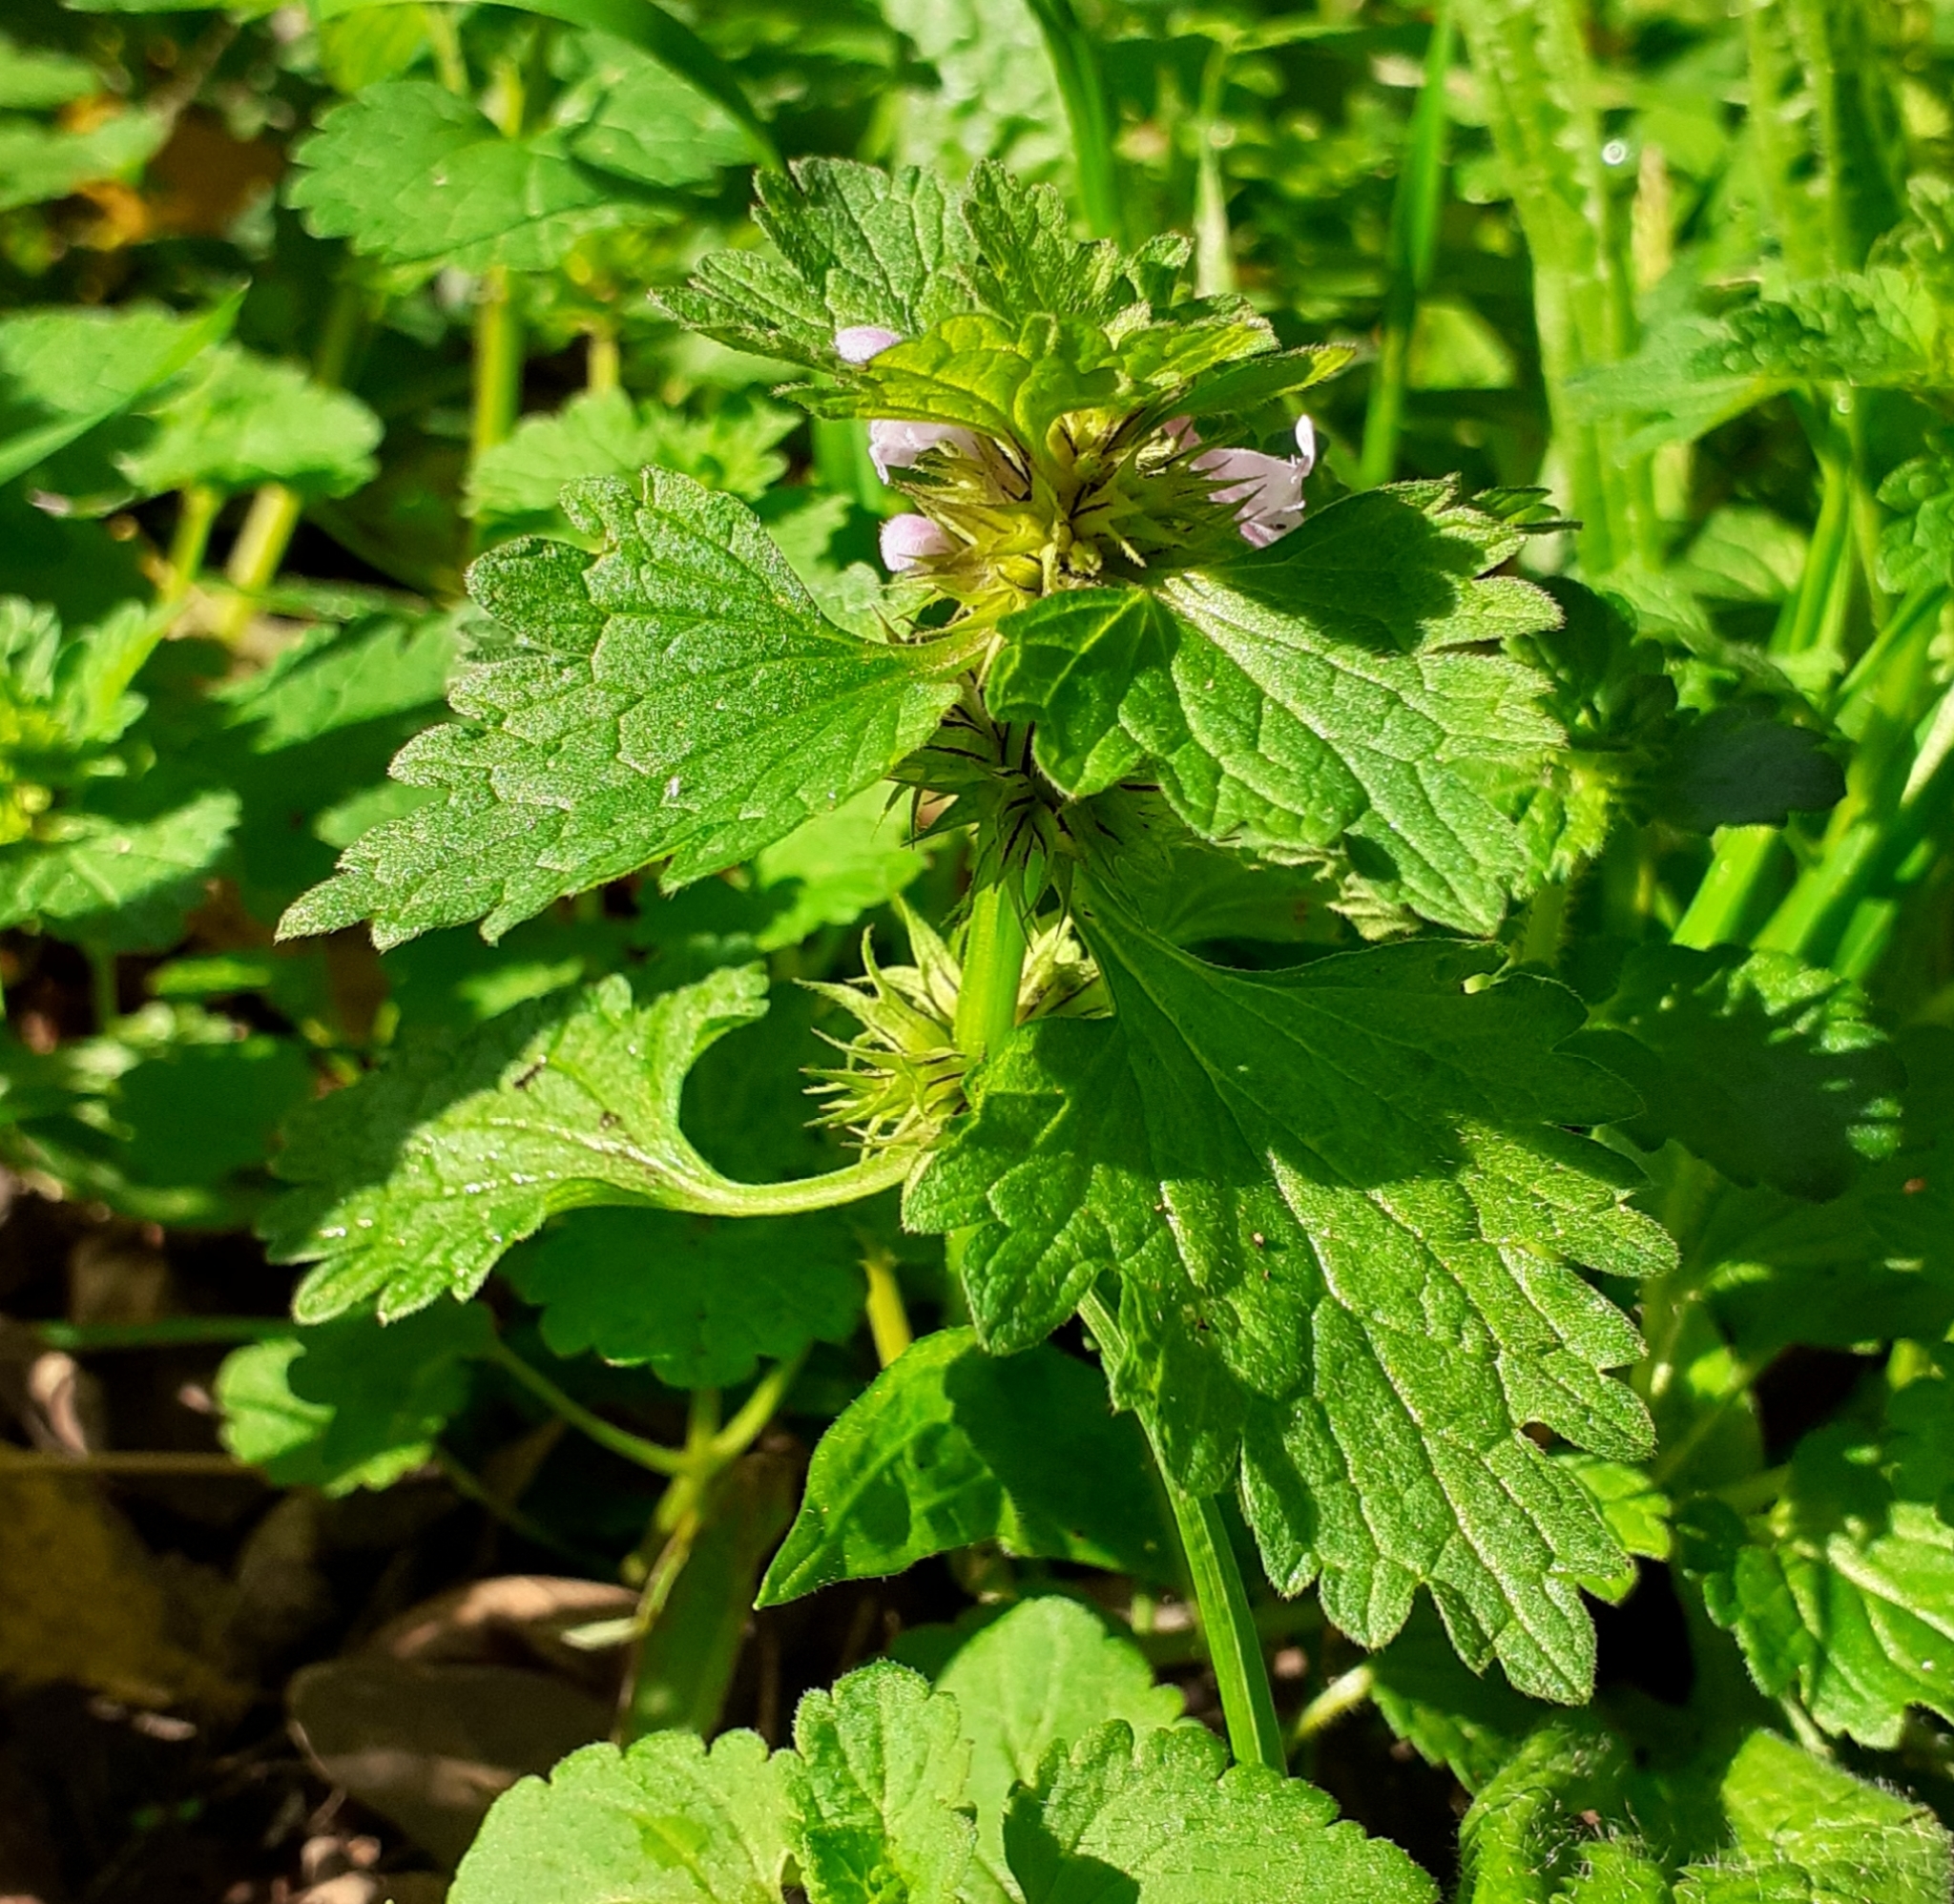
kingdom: Plantae
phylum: Tracheophyta
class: Magnoliopsida
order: Lamiales
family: Lamiaceae
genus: Lamium
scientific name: Lamium purpureum
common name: Red dead-nettle
